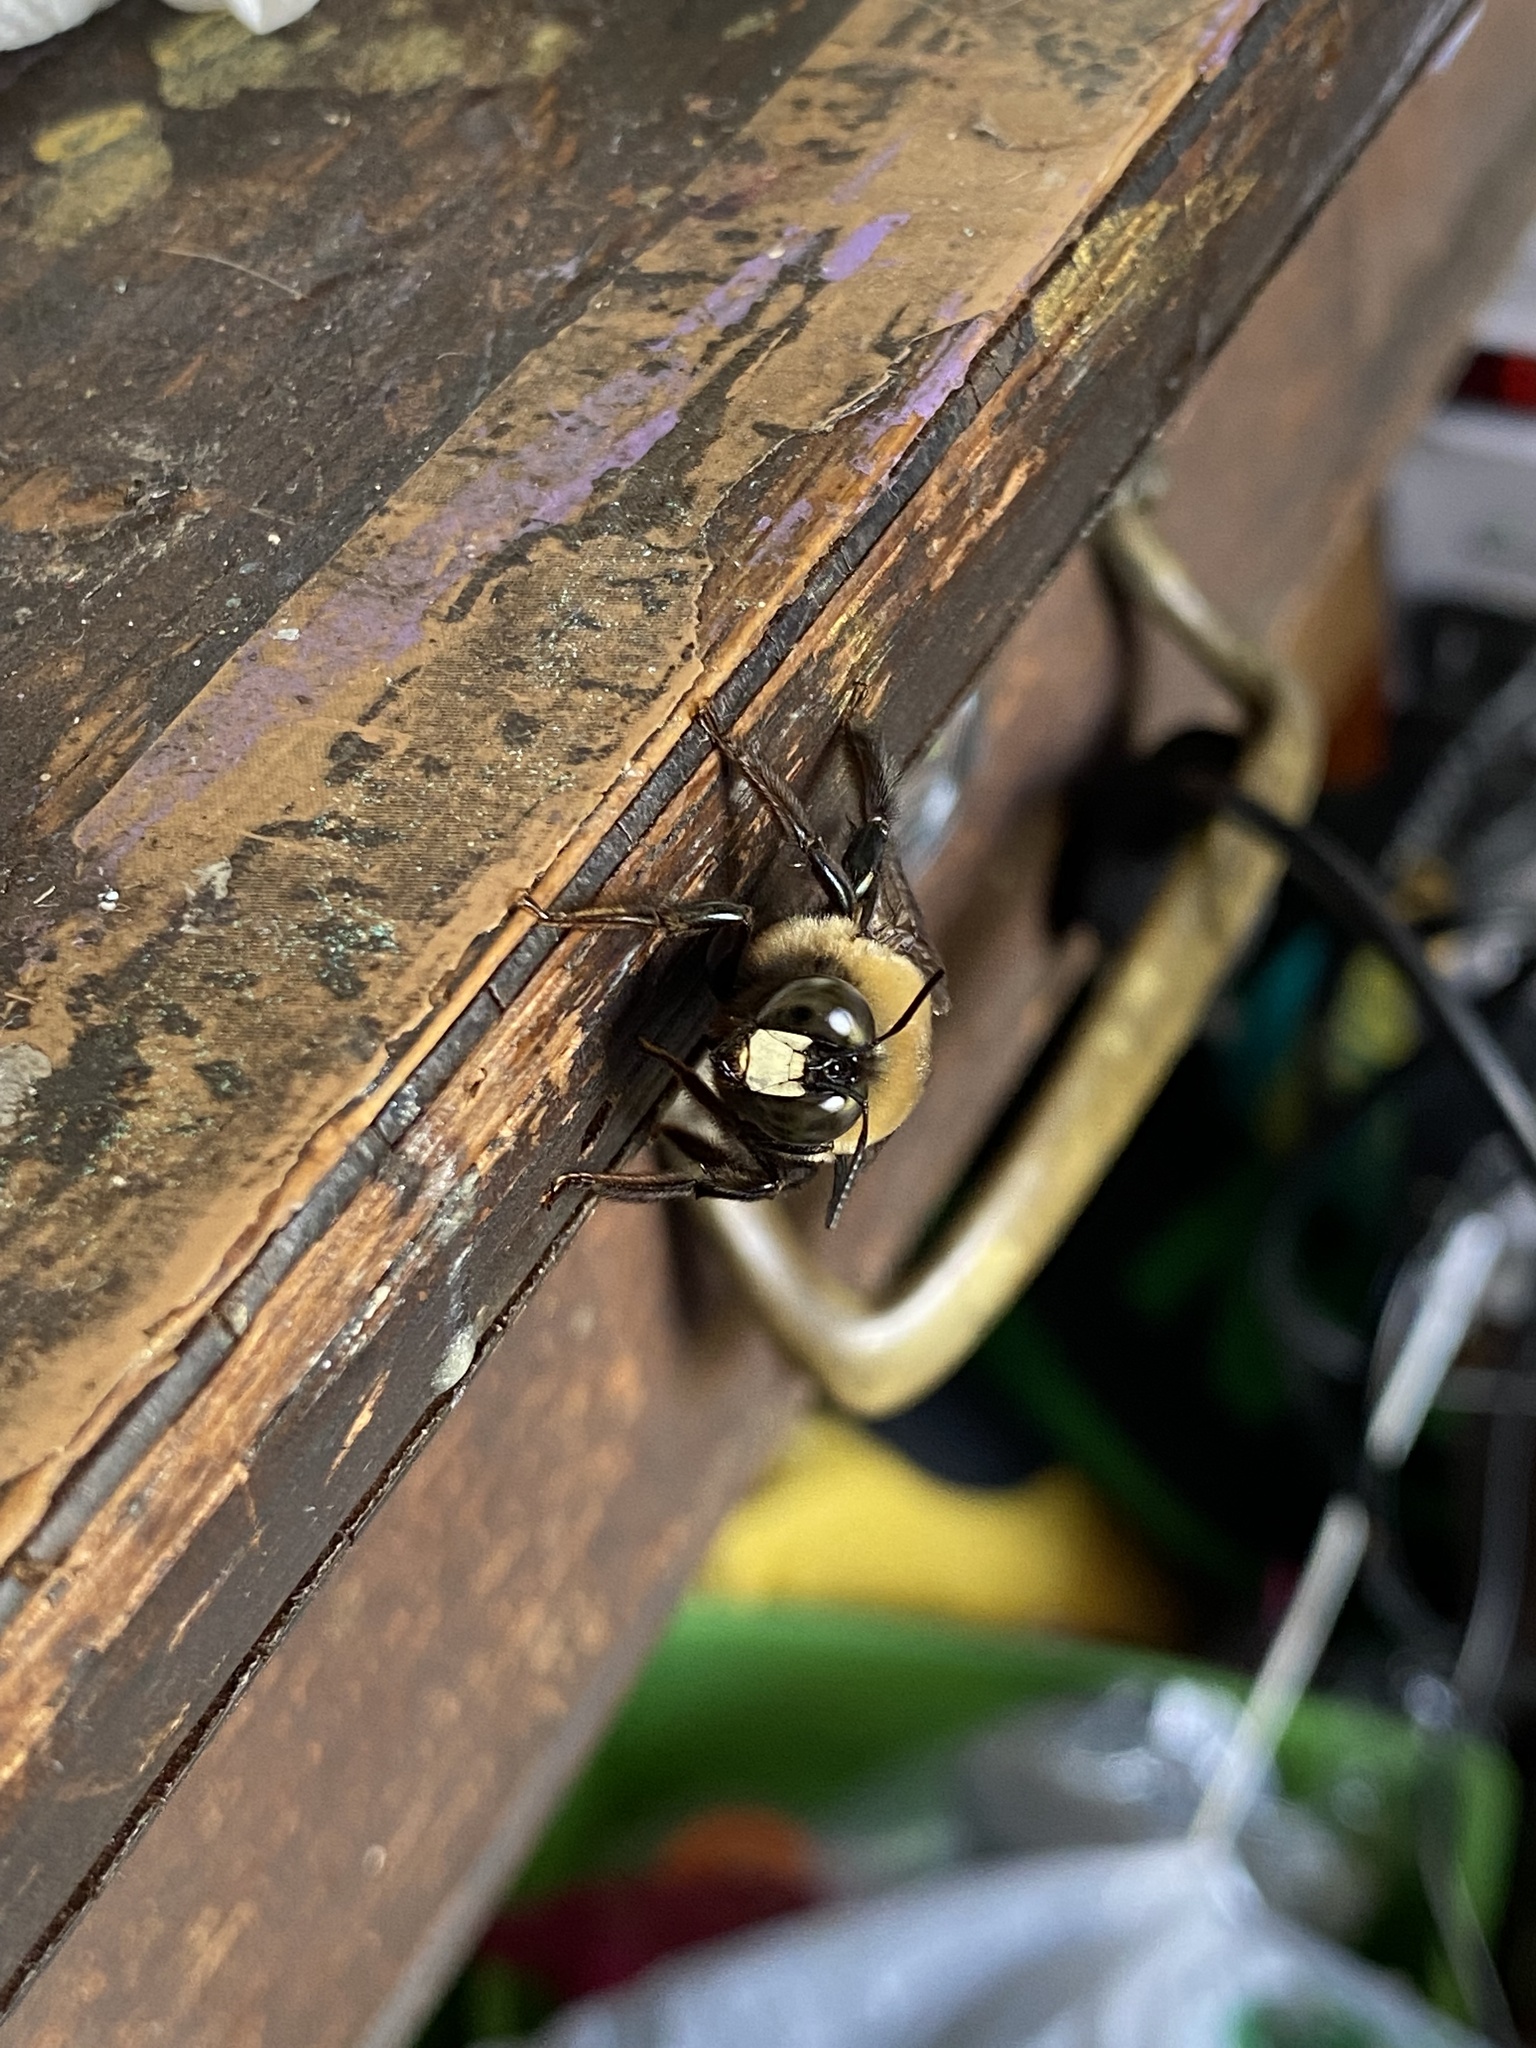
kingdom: Animalia
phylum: Arthropoda
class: Insecta
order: Hymenoptera
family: Apidae
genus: Xylocopa
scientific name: Xylocopa virginica
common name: Carpenter bee
